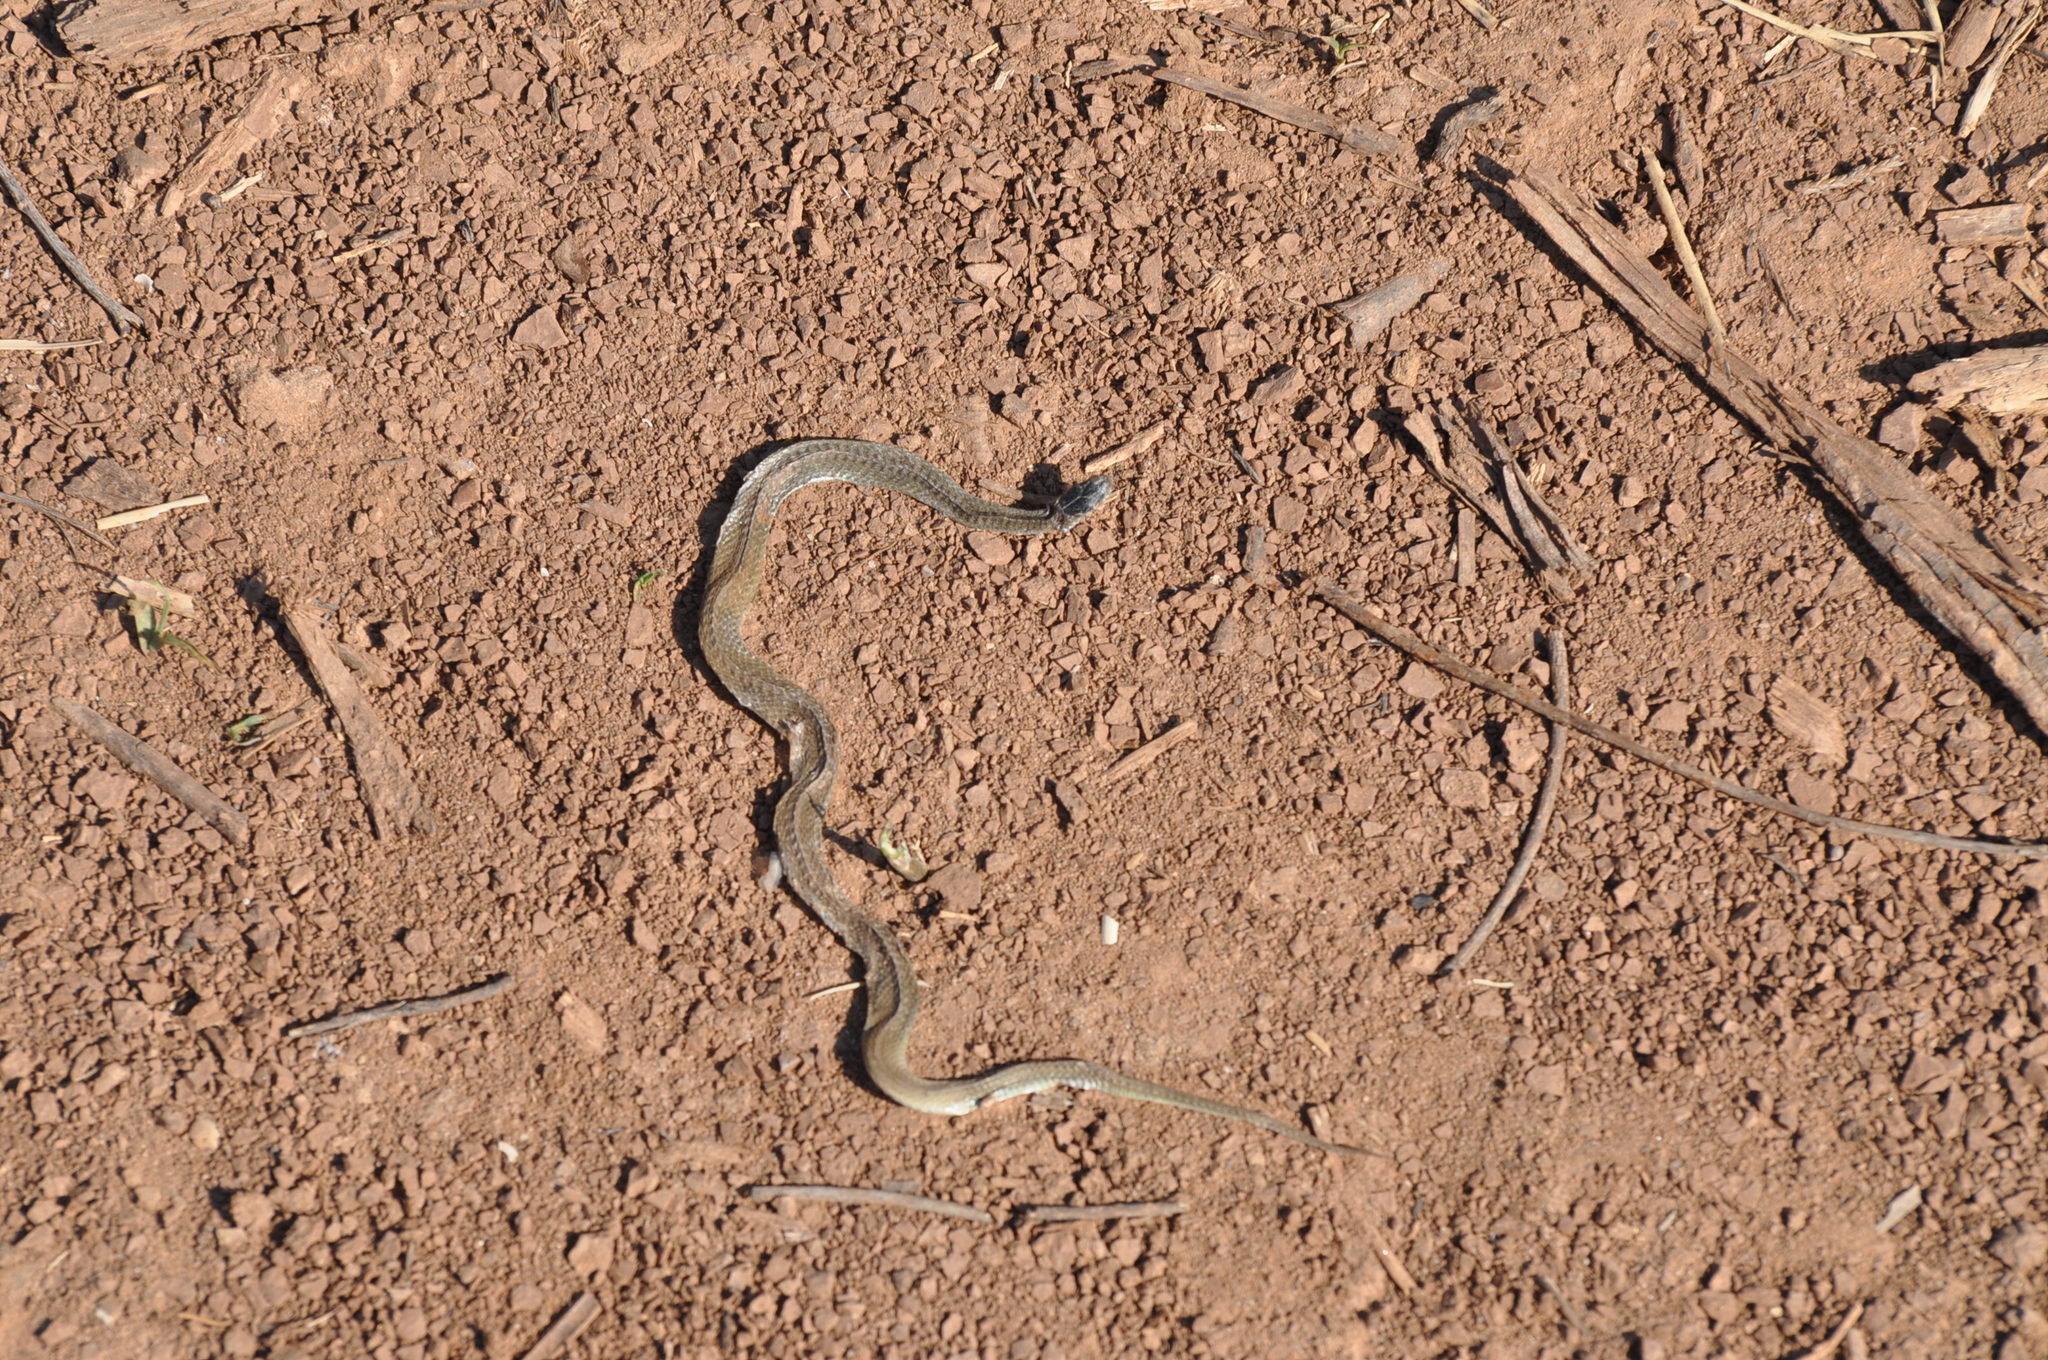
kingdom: Animalia
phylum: Chordata
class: Squamata
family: Colubridae
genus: Storeria
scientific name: Storeria dekayi
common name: (dekay’s) brown snake
